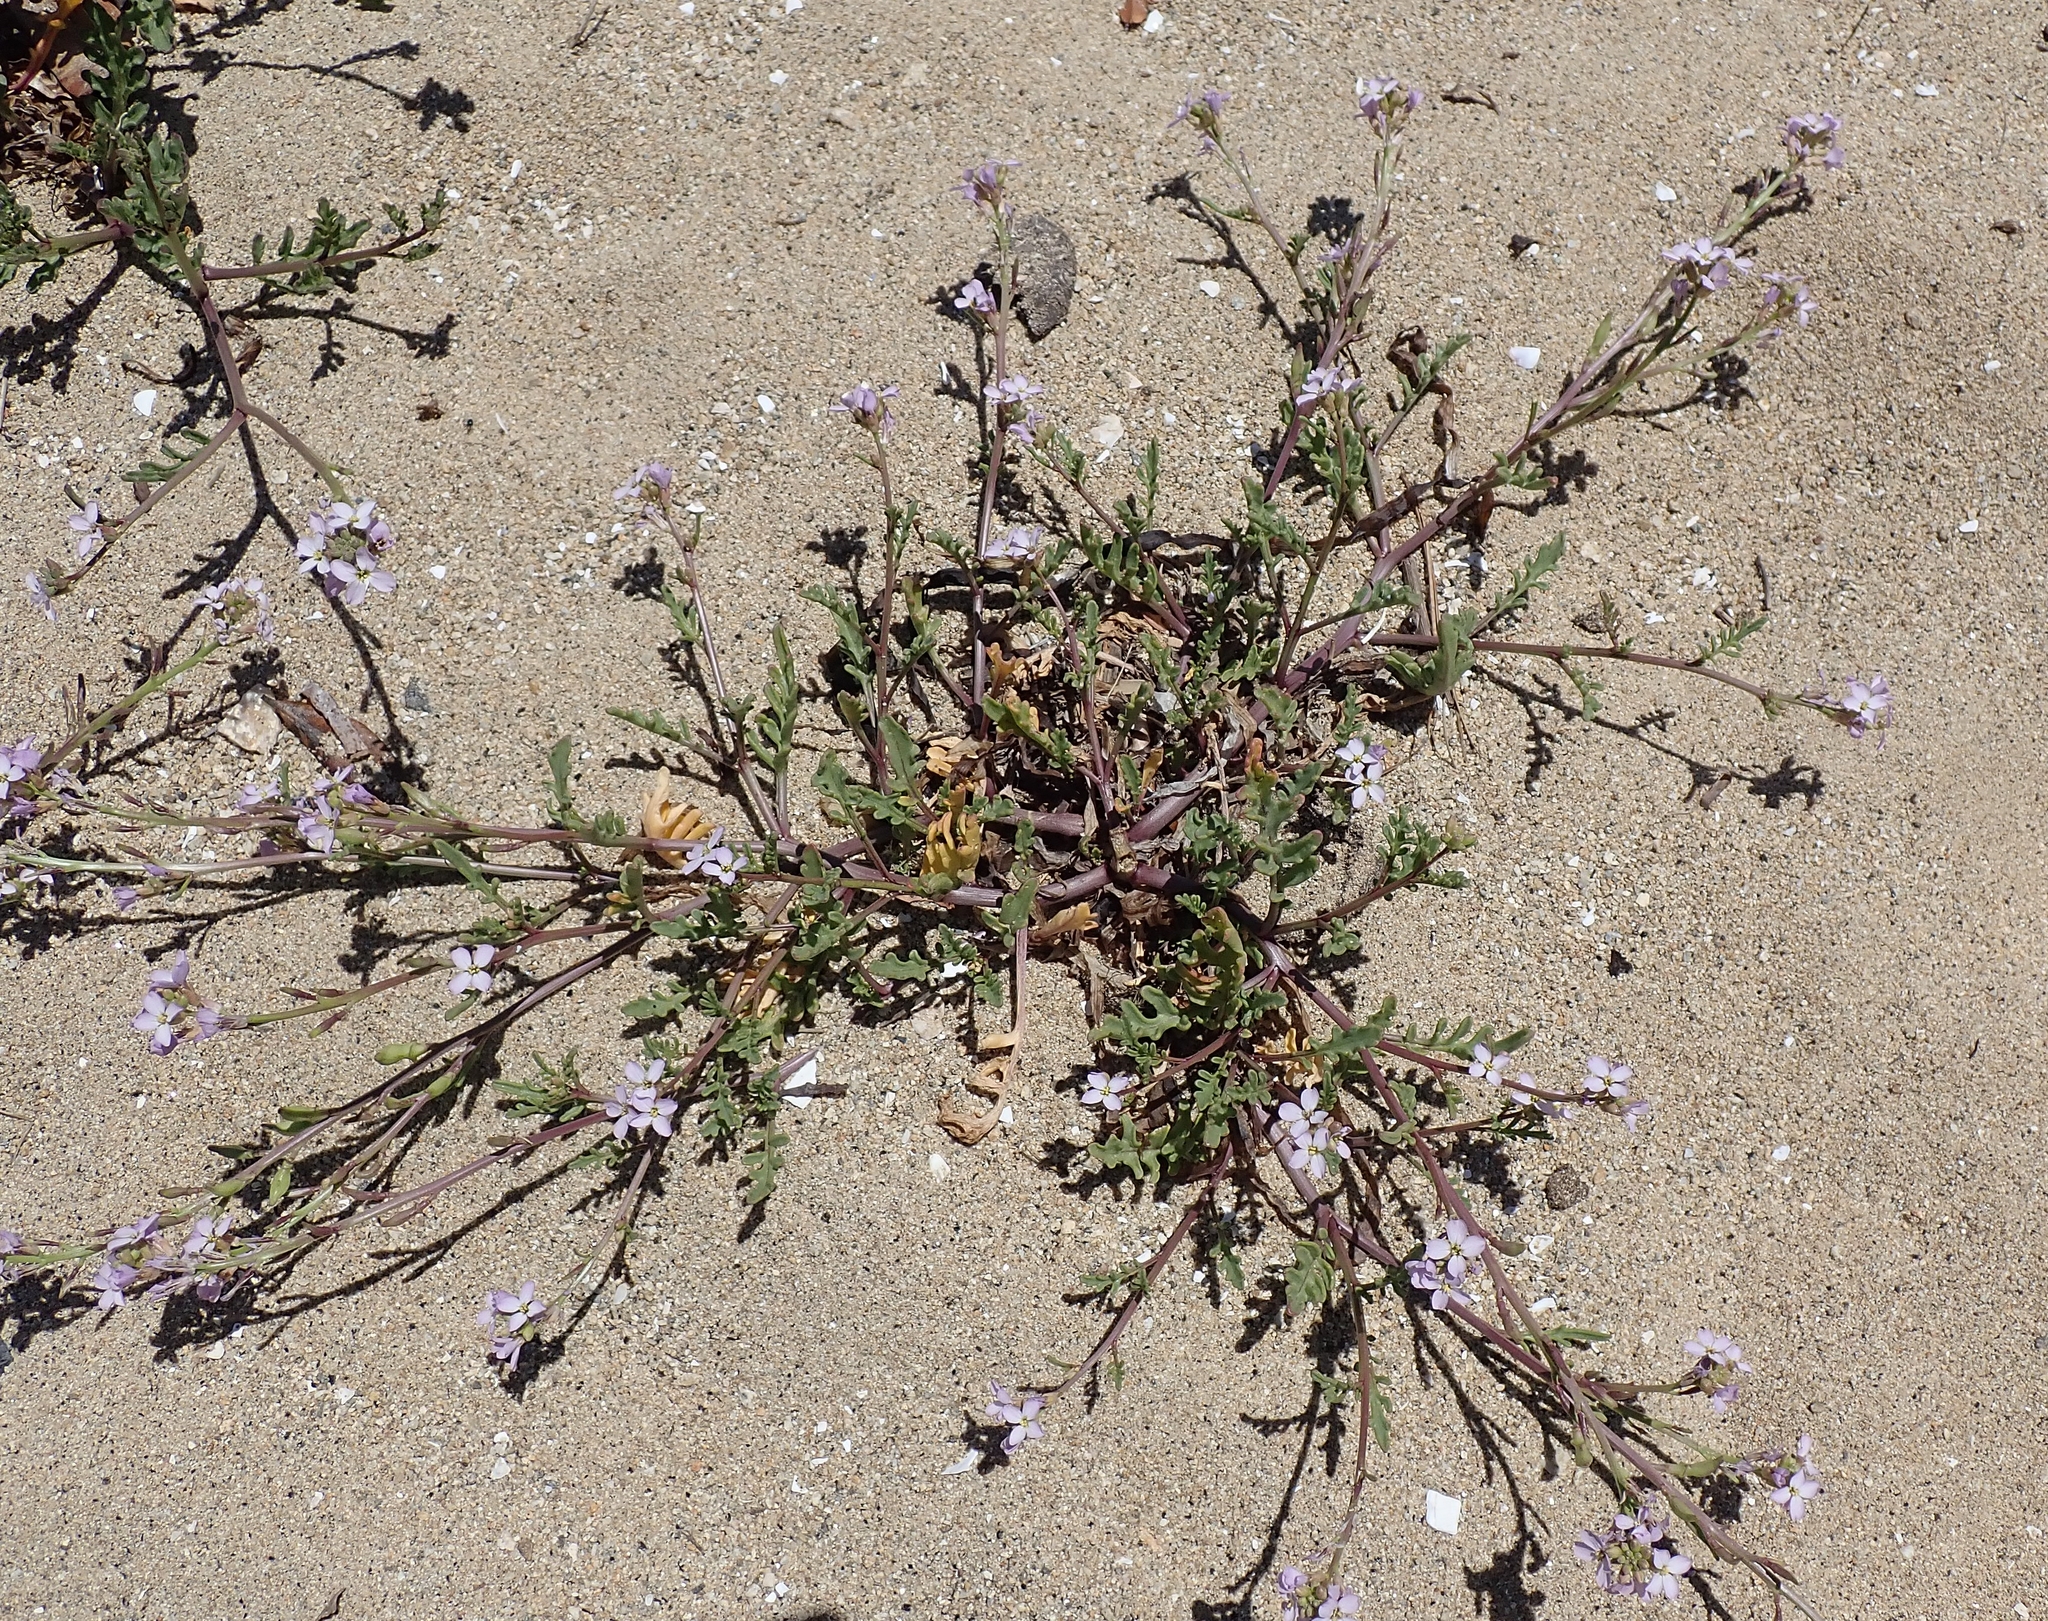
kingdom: Plantae
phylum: Tracheophyta
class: Magnoliopsida
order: Brassicales
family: Brassicaceae
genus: Cakile
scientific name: Cakile maritima
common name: Sea rocket
